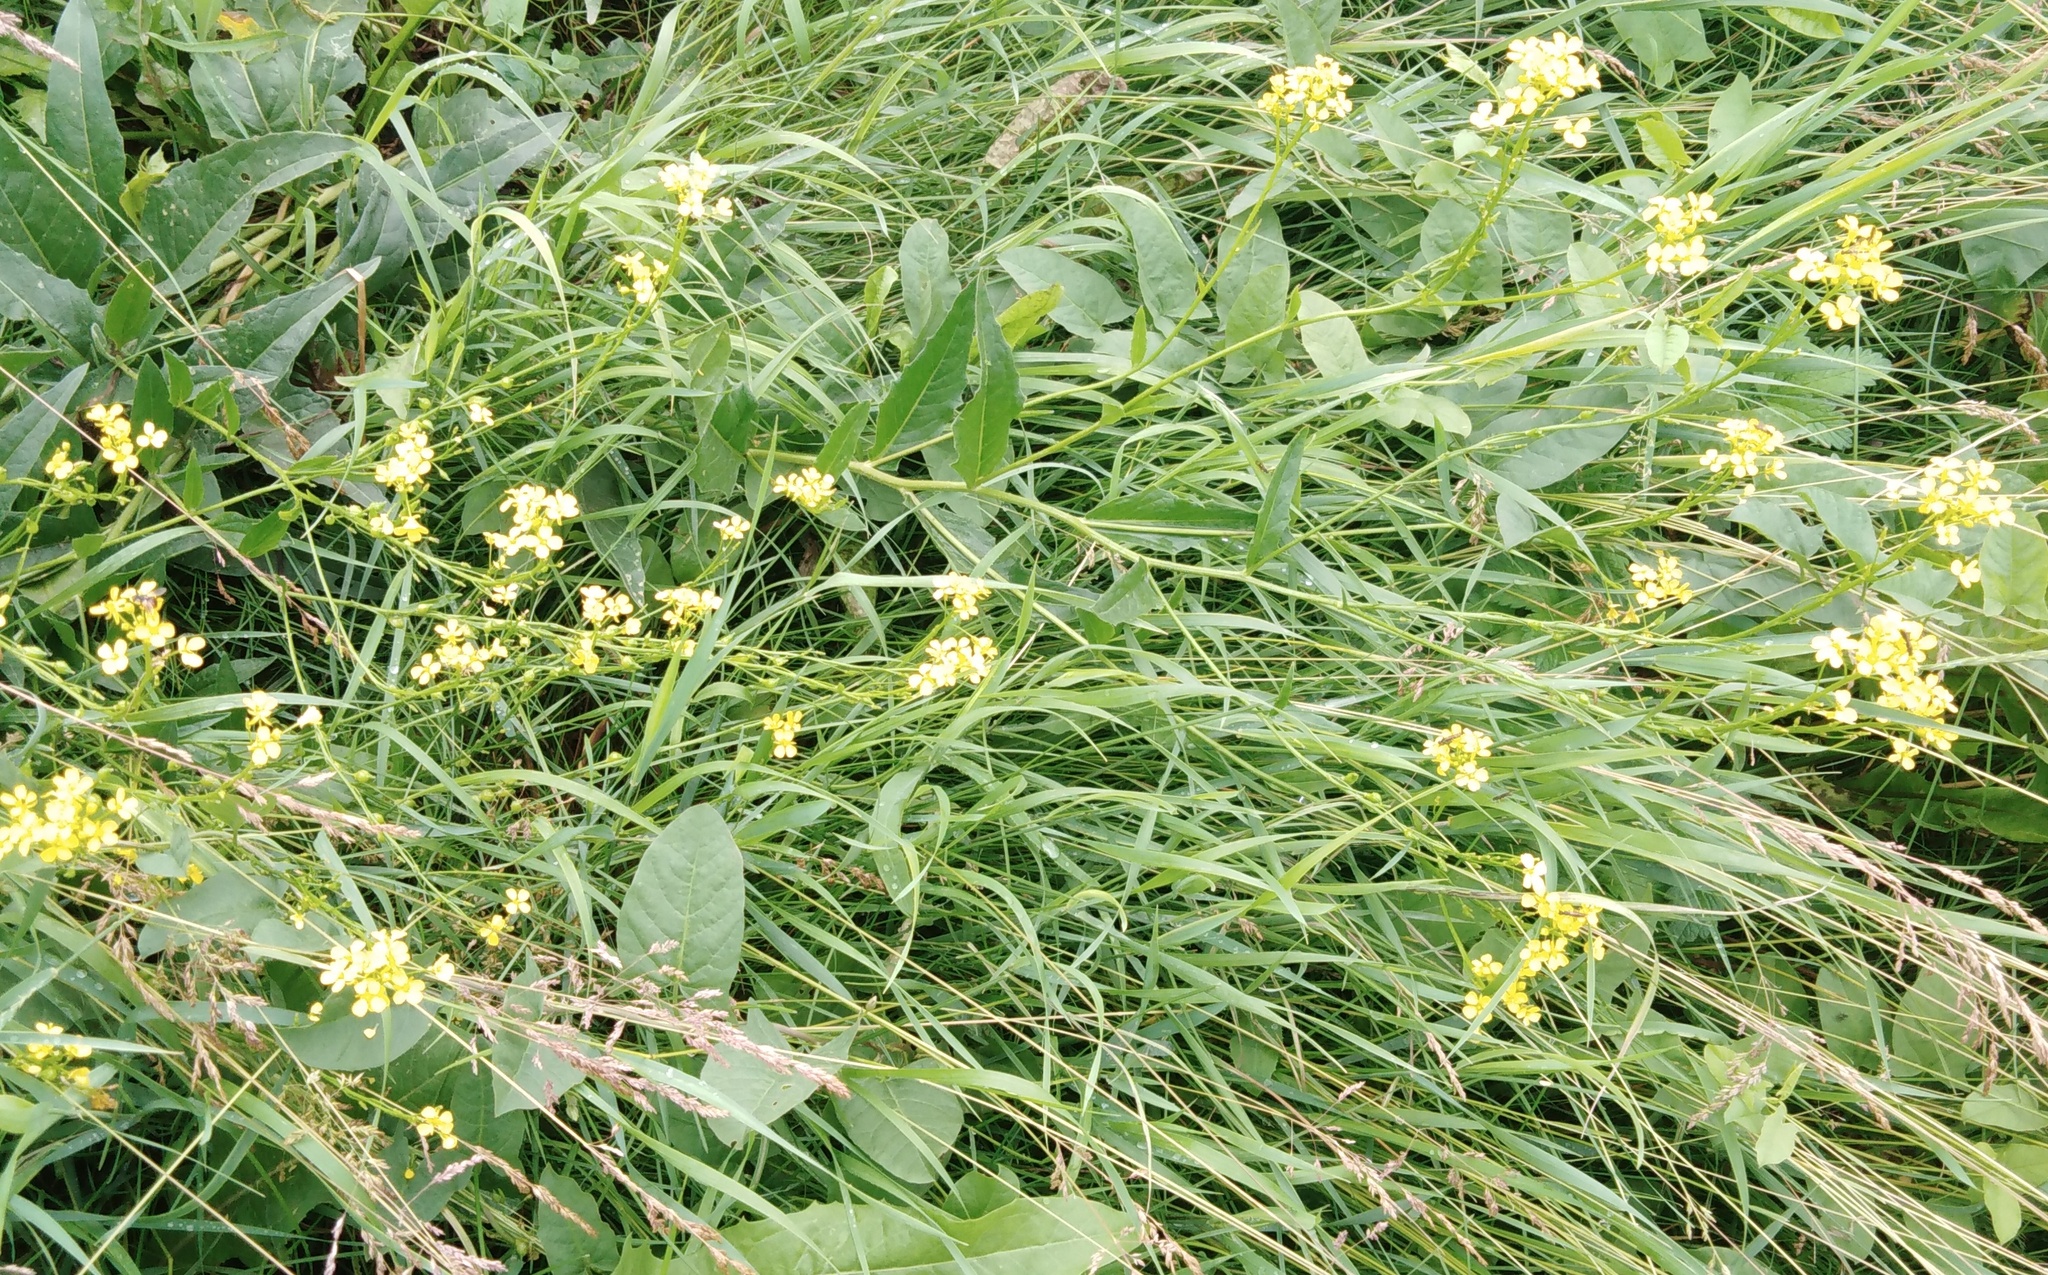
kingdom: Plantae
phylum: Tracheophyta
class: Magnoliopsida
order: Brassicales
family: Brassicaceae
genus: Bunias
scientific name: Bunias orientalis
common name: Warty-cabbage
